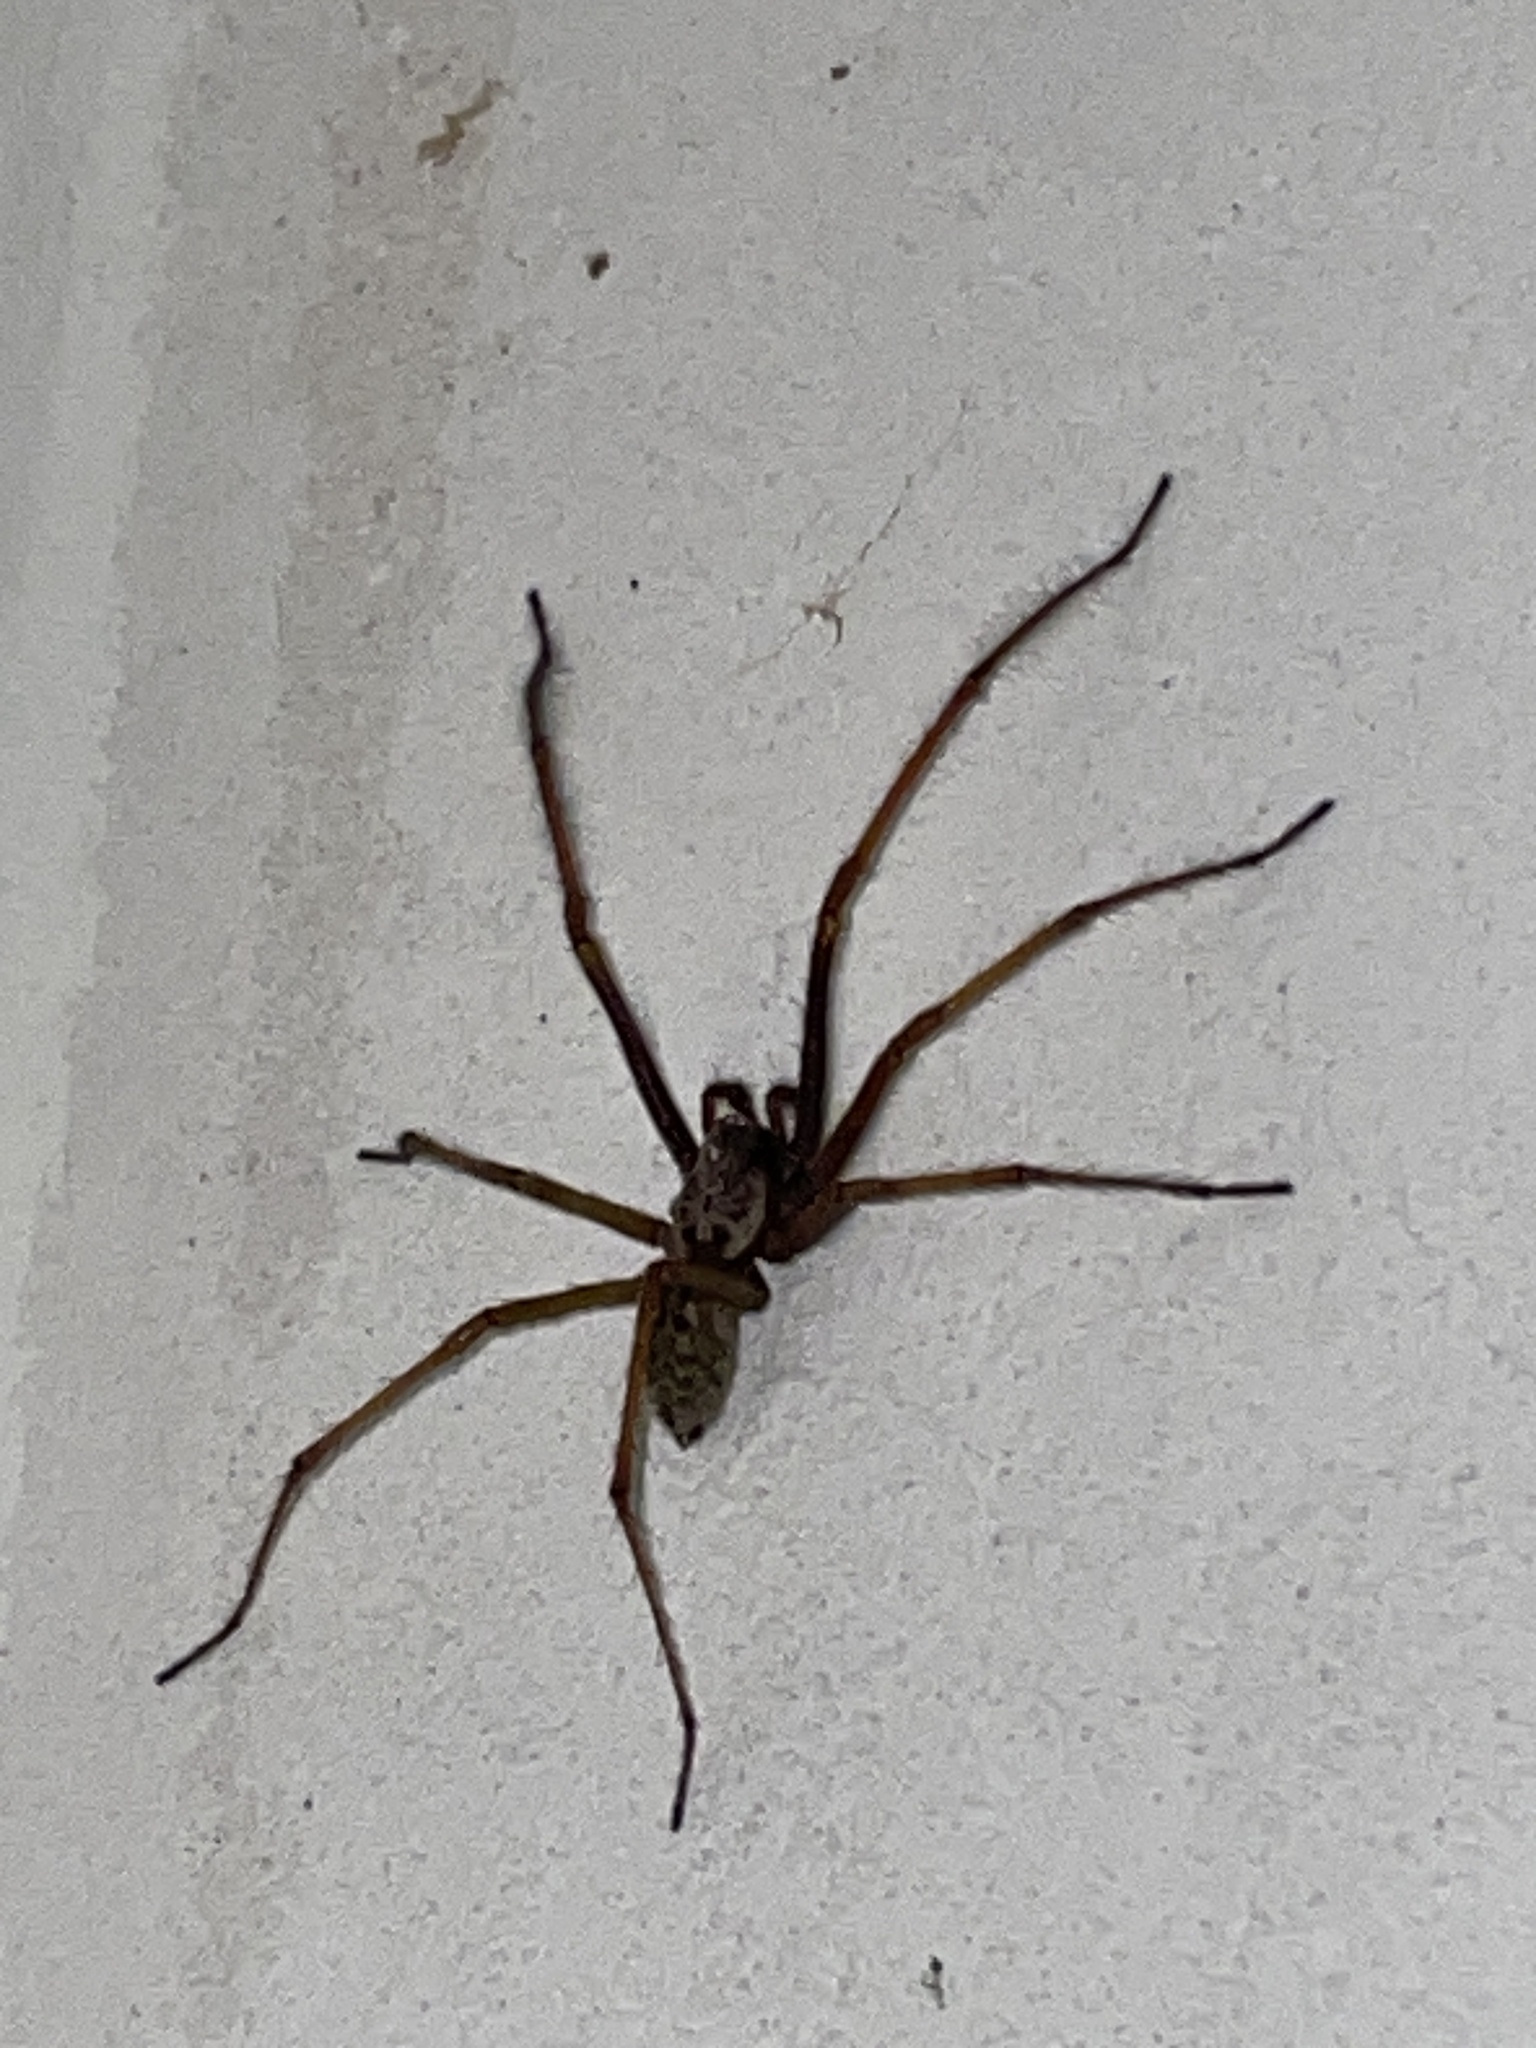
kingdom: Animalia
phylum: Arthropoda
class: Arachnida
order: Araneae
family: Agelenidae
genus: Eratigena
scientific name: Eratigena atrica
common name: Giant house spider
